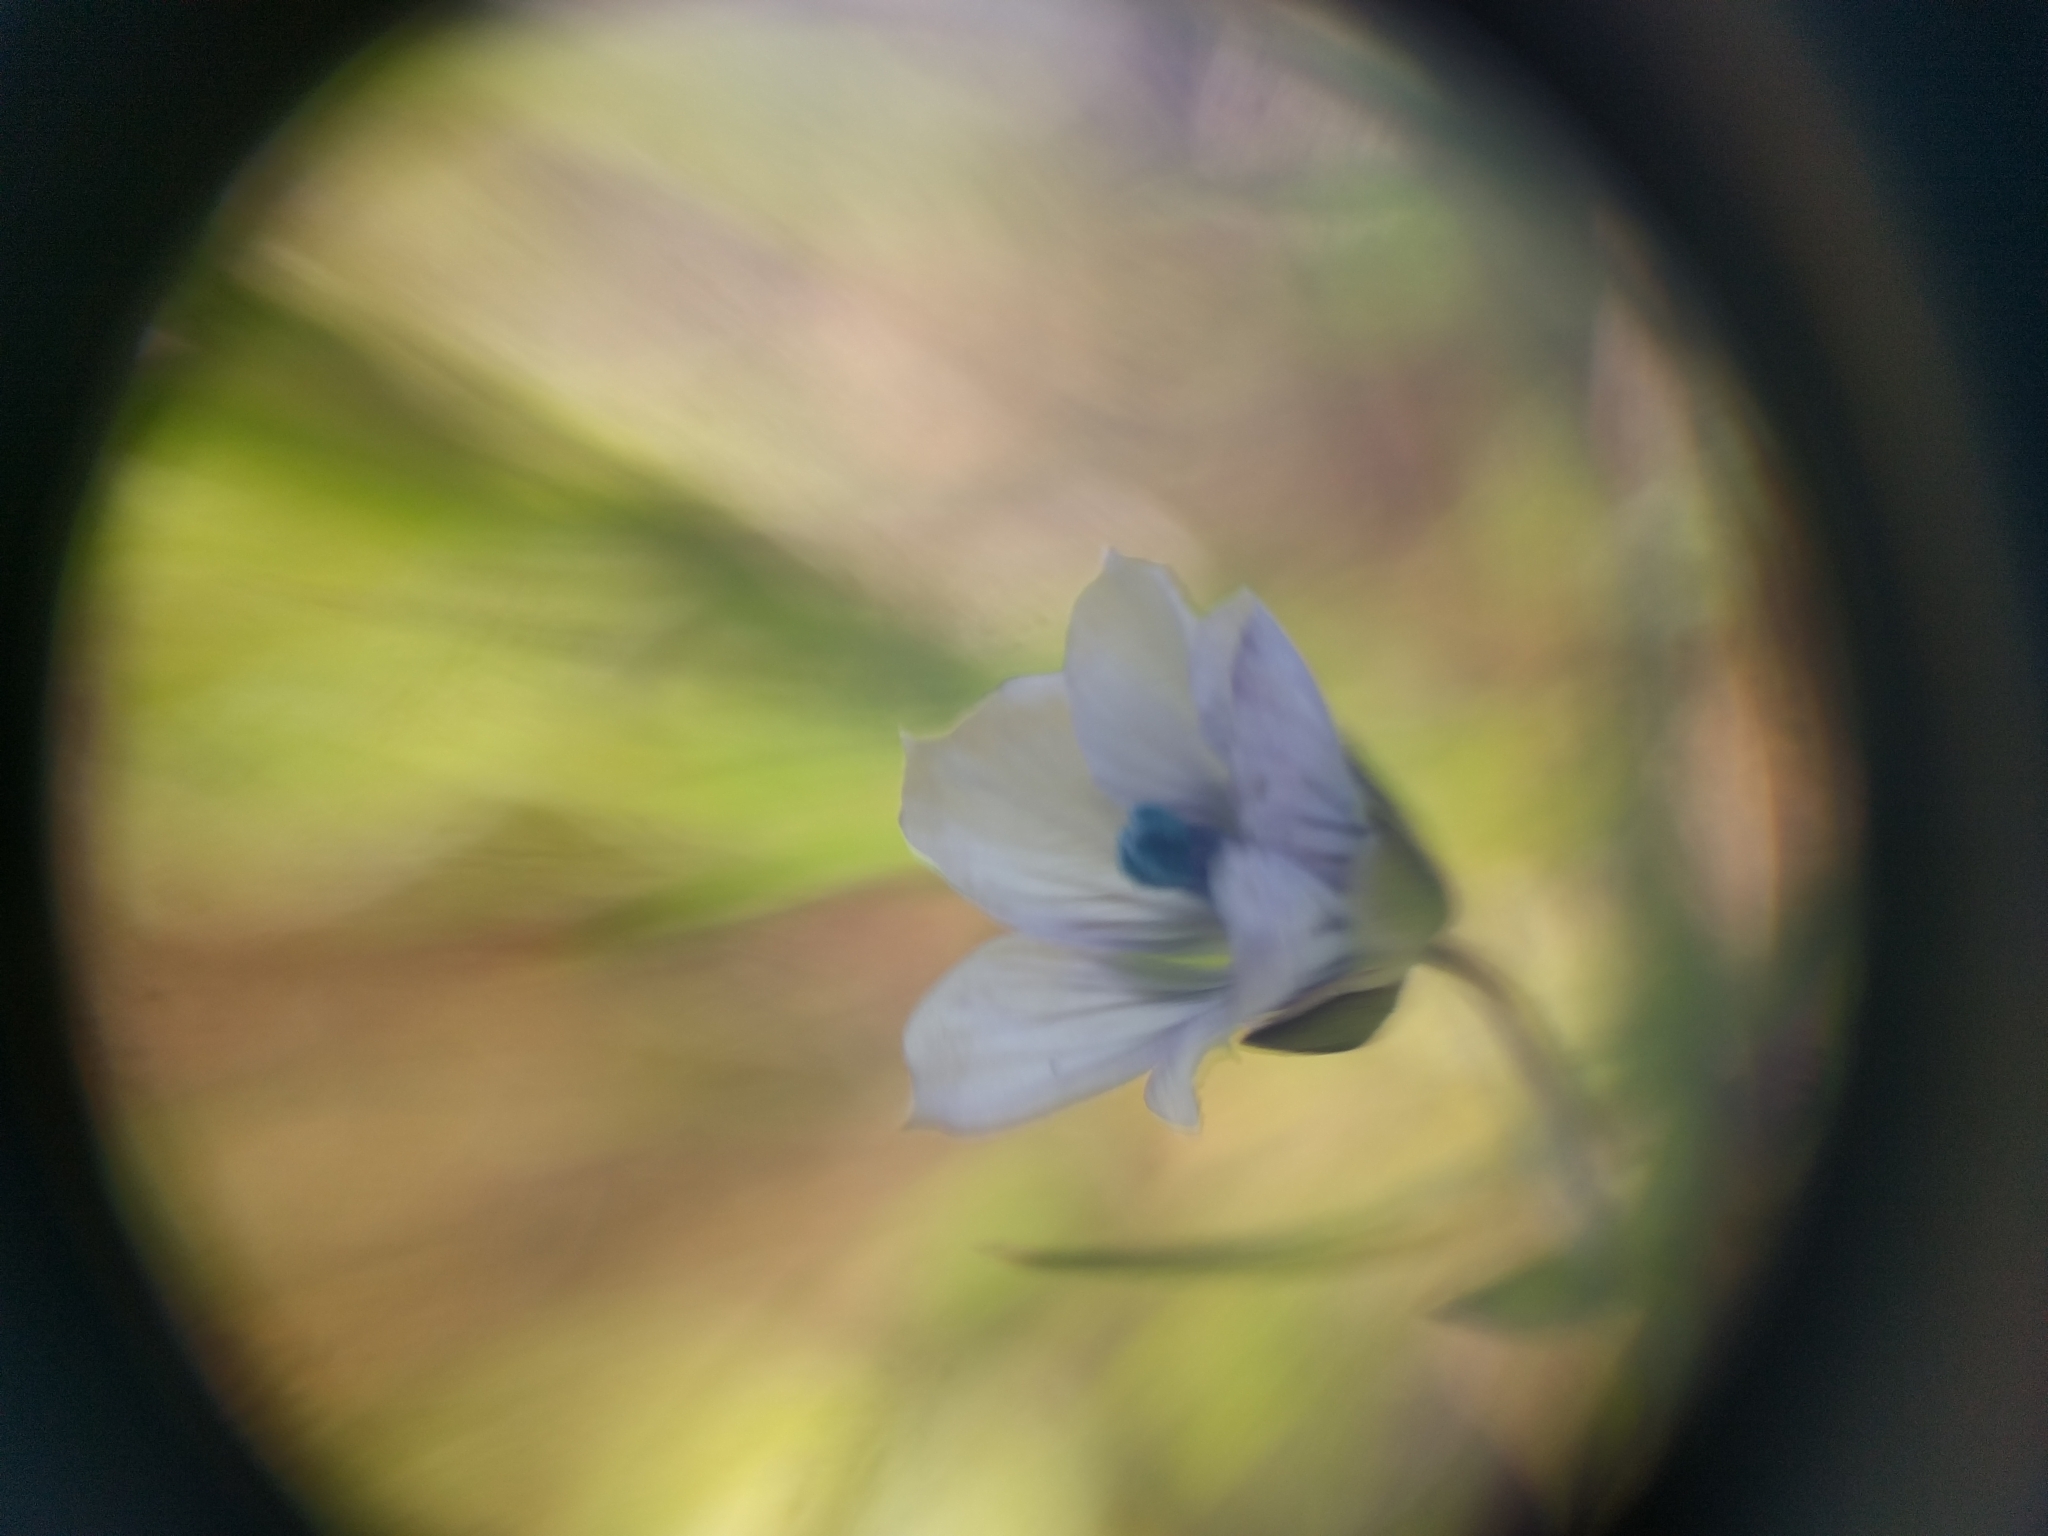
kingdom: Plantae
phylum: Tracheophyta
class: Magnoliopsida
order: Malpighiales
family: Linaceae
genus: Linum
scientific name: Linum bienne
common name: Pale flax
